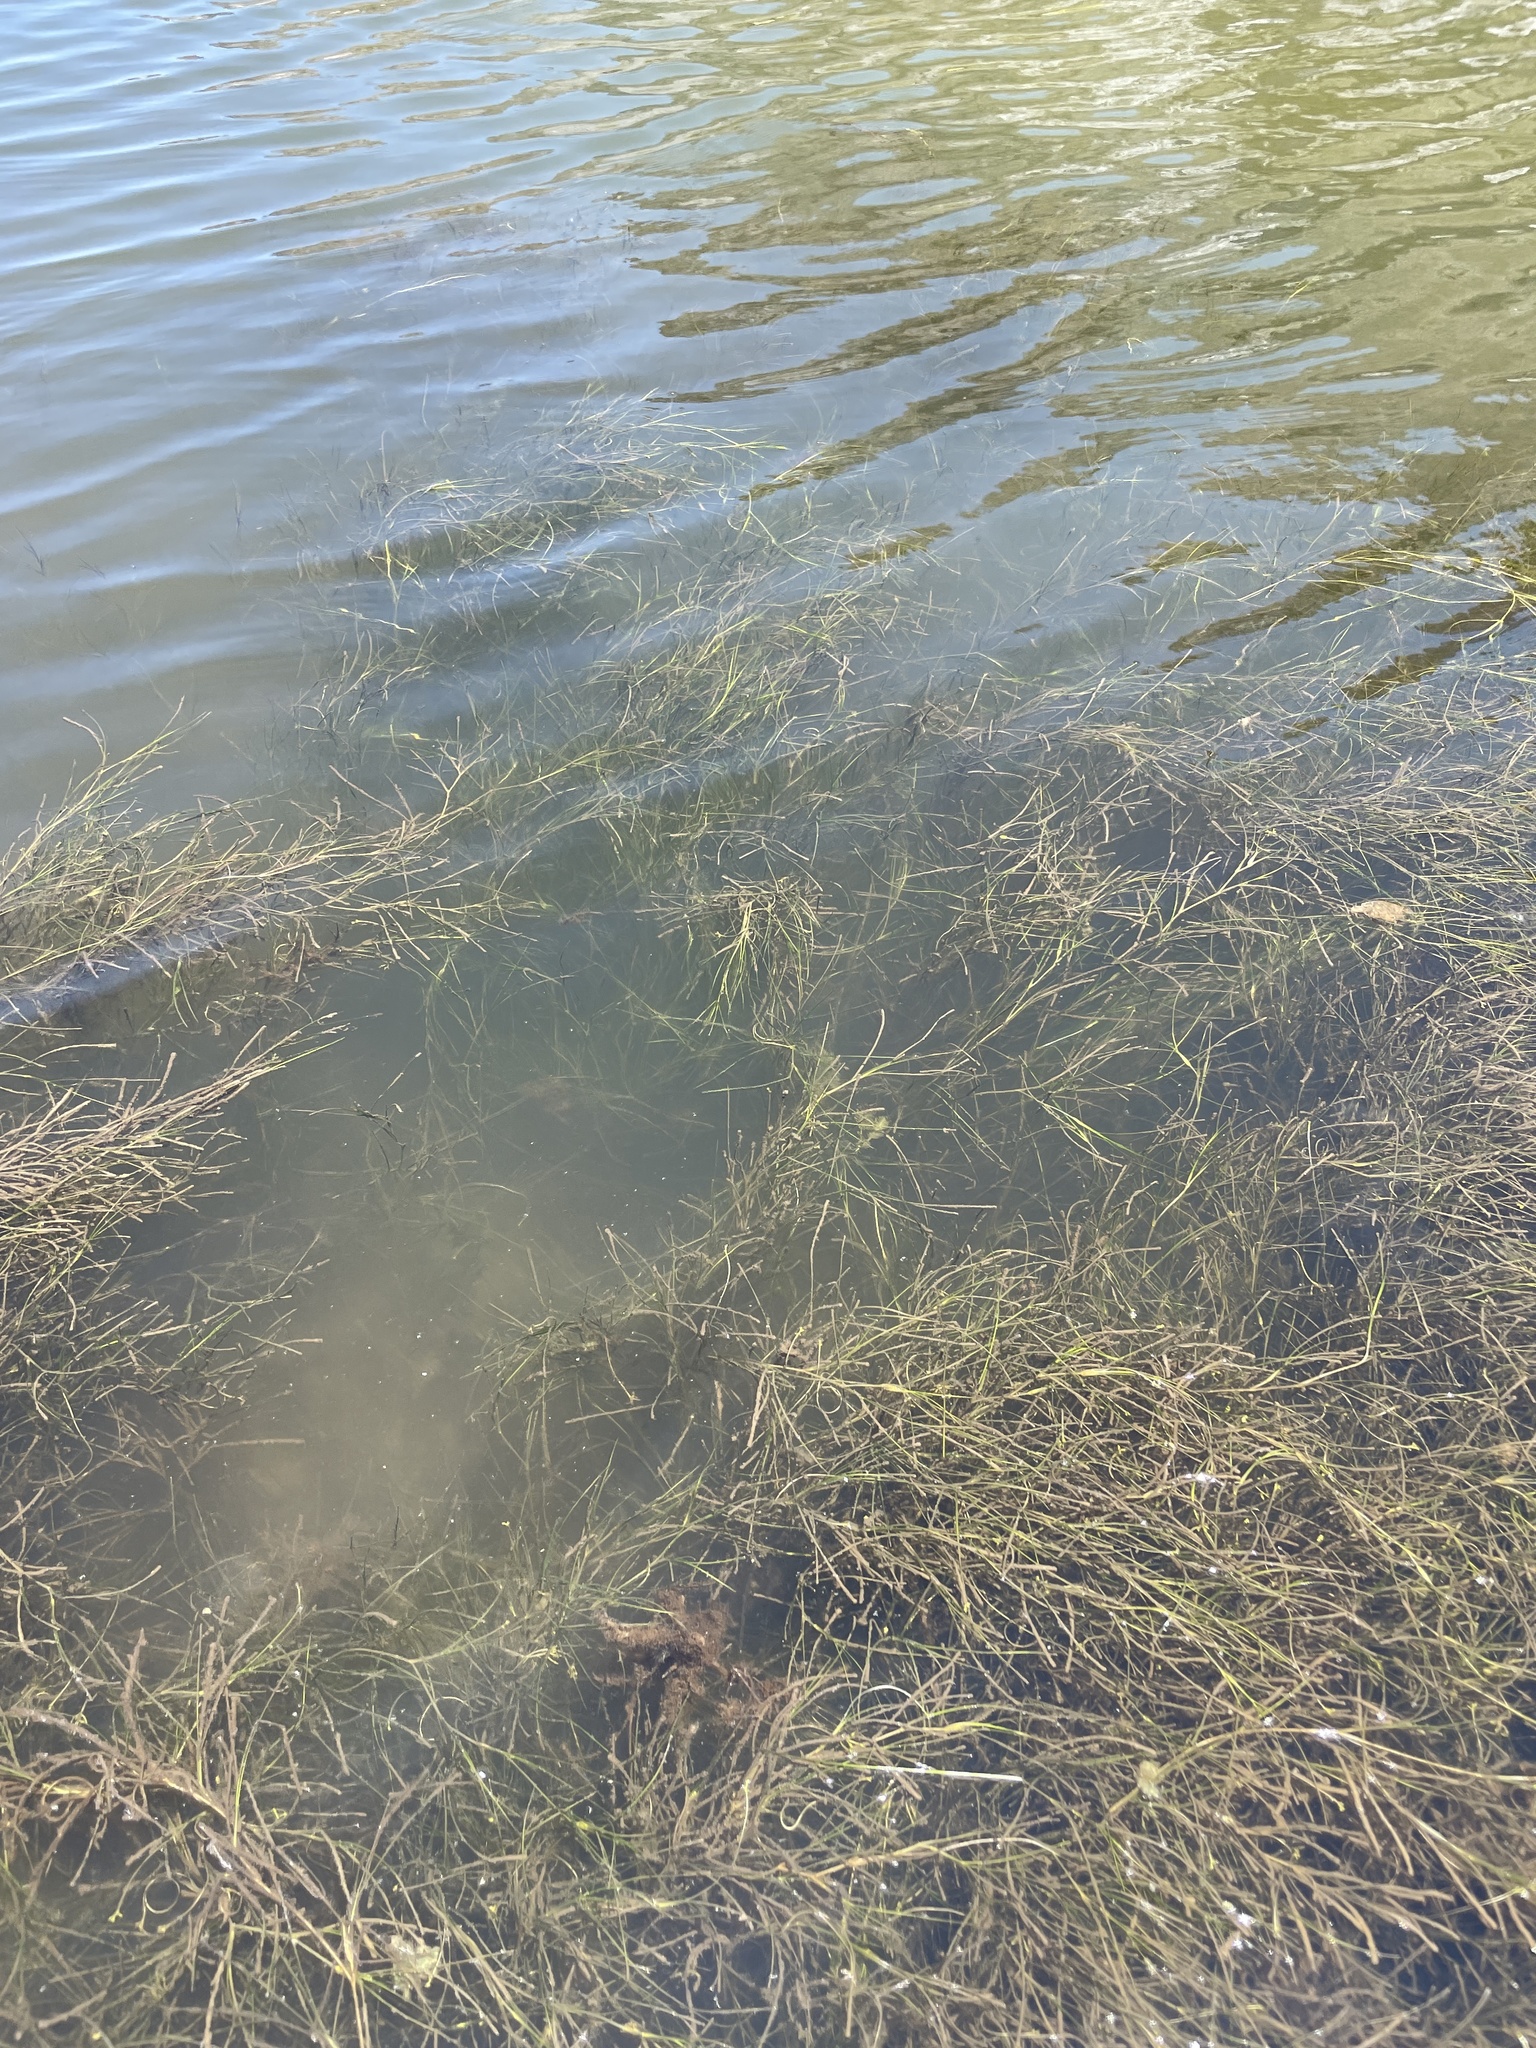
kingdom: Plantae
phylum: Tracheophyta
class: Liliopsida
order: Alismatales
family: Ruppiaceae
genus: Ruppia
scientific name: Ruppia maritima
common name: Beaked tasselweed
